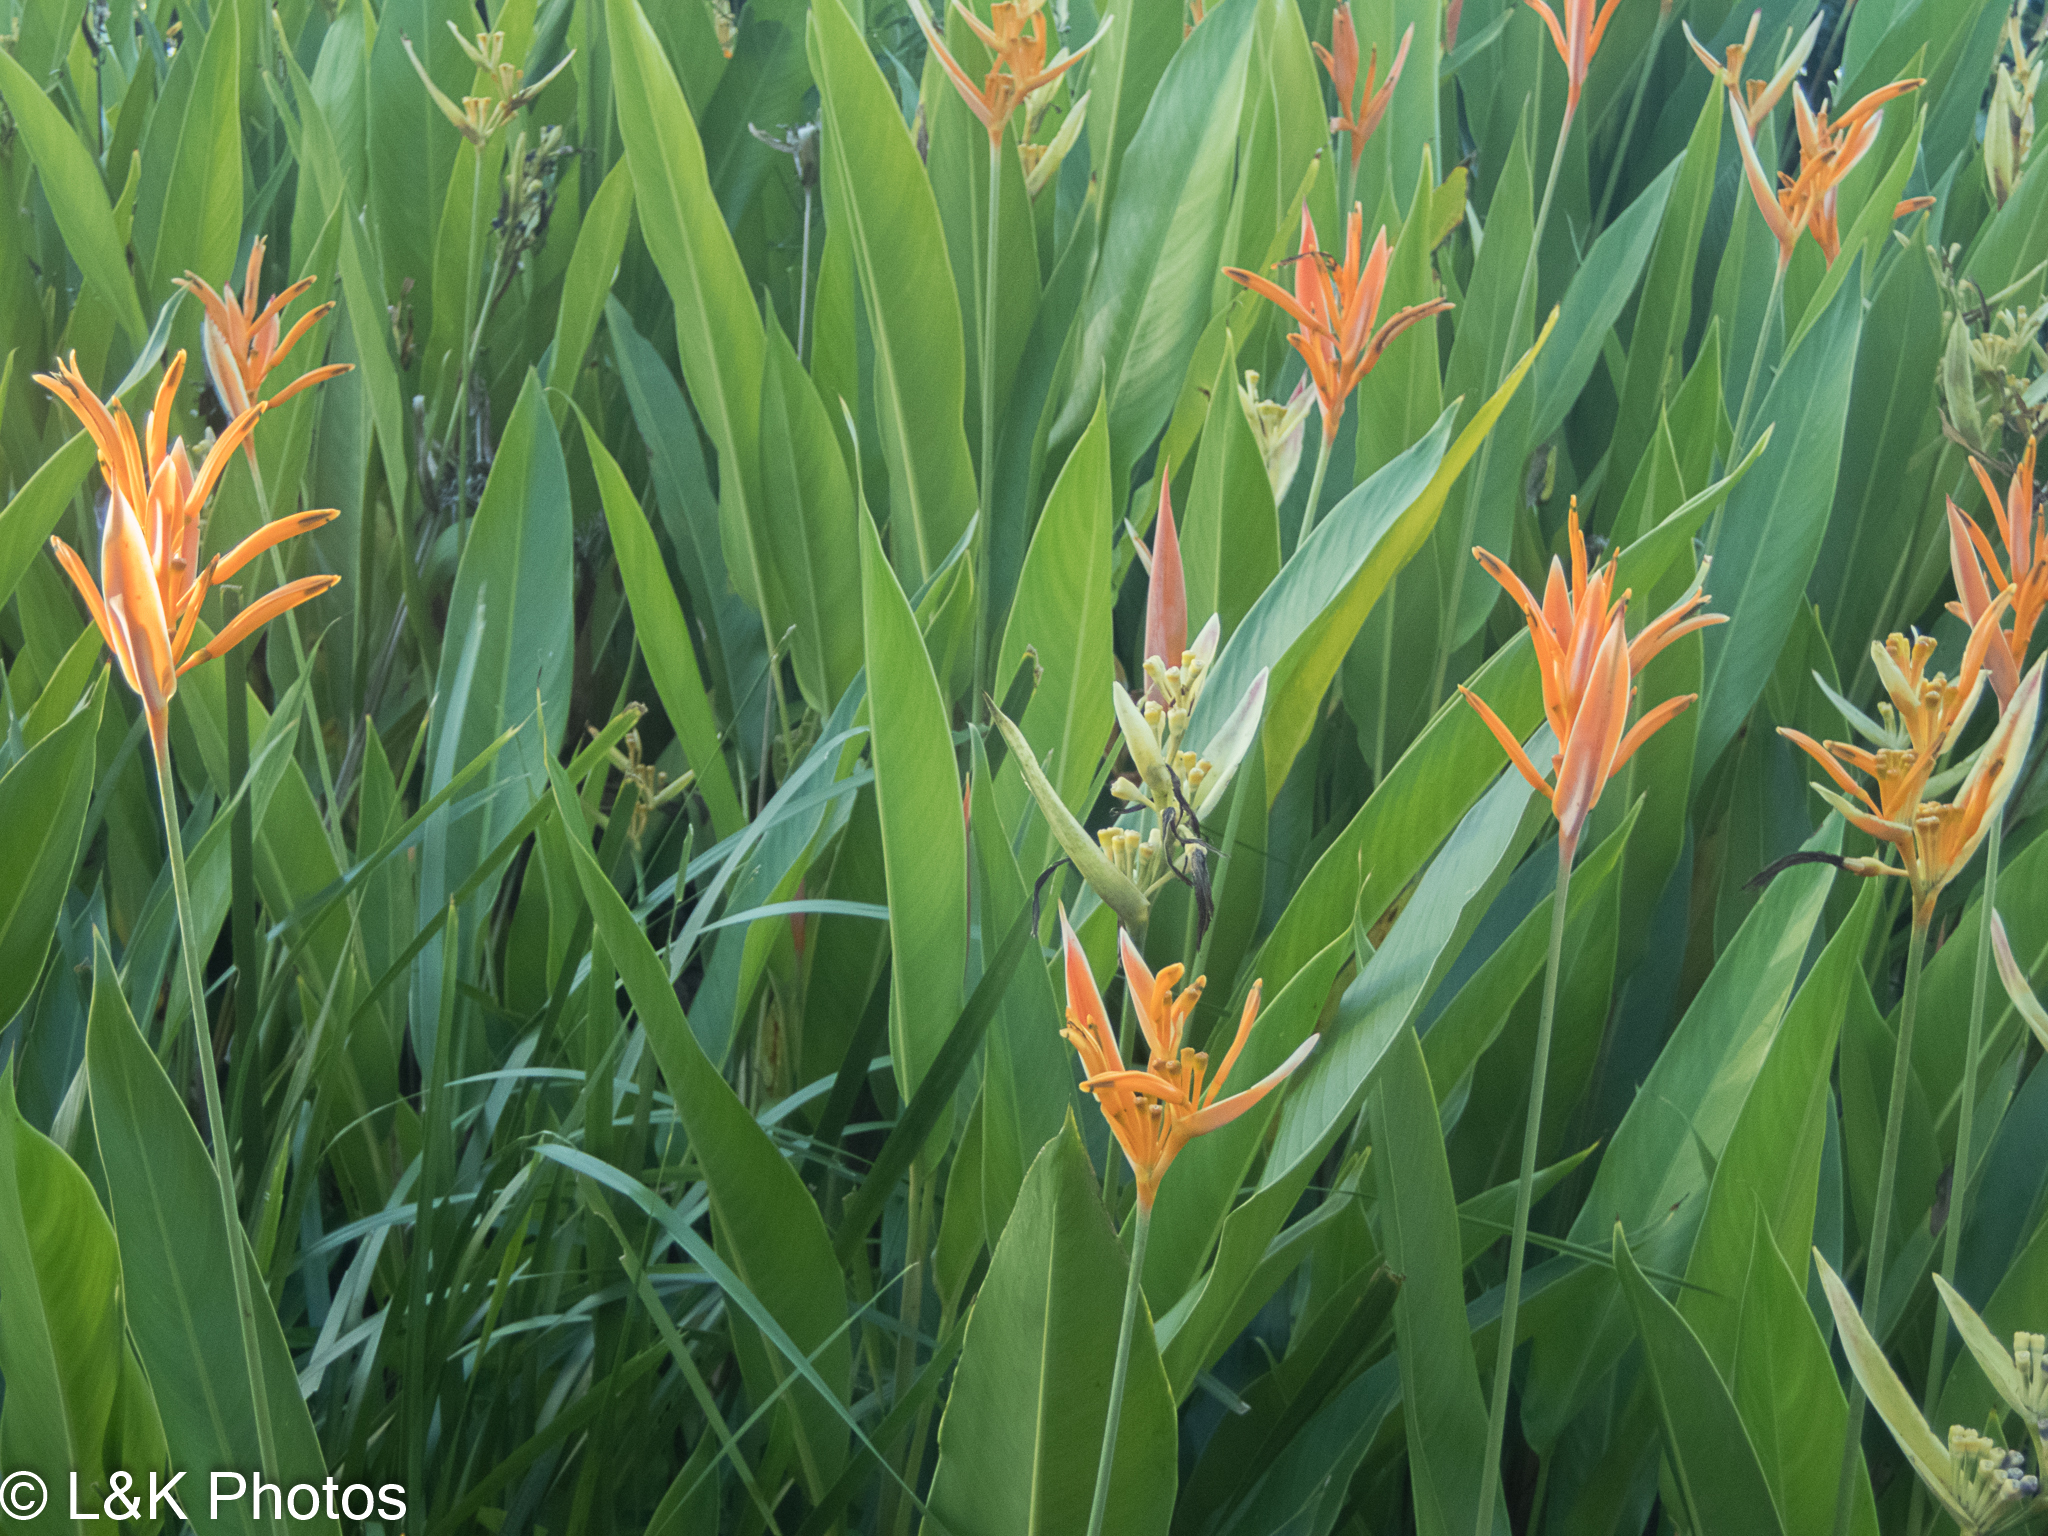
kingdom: Plantae
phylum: Tracheophyta
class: Liliopsida
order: Zingiberales
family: Heliconiaceae
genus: Heliconia
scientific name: Heliconia psittacorum
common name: Parrot's-flower
